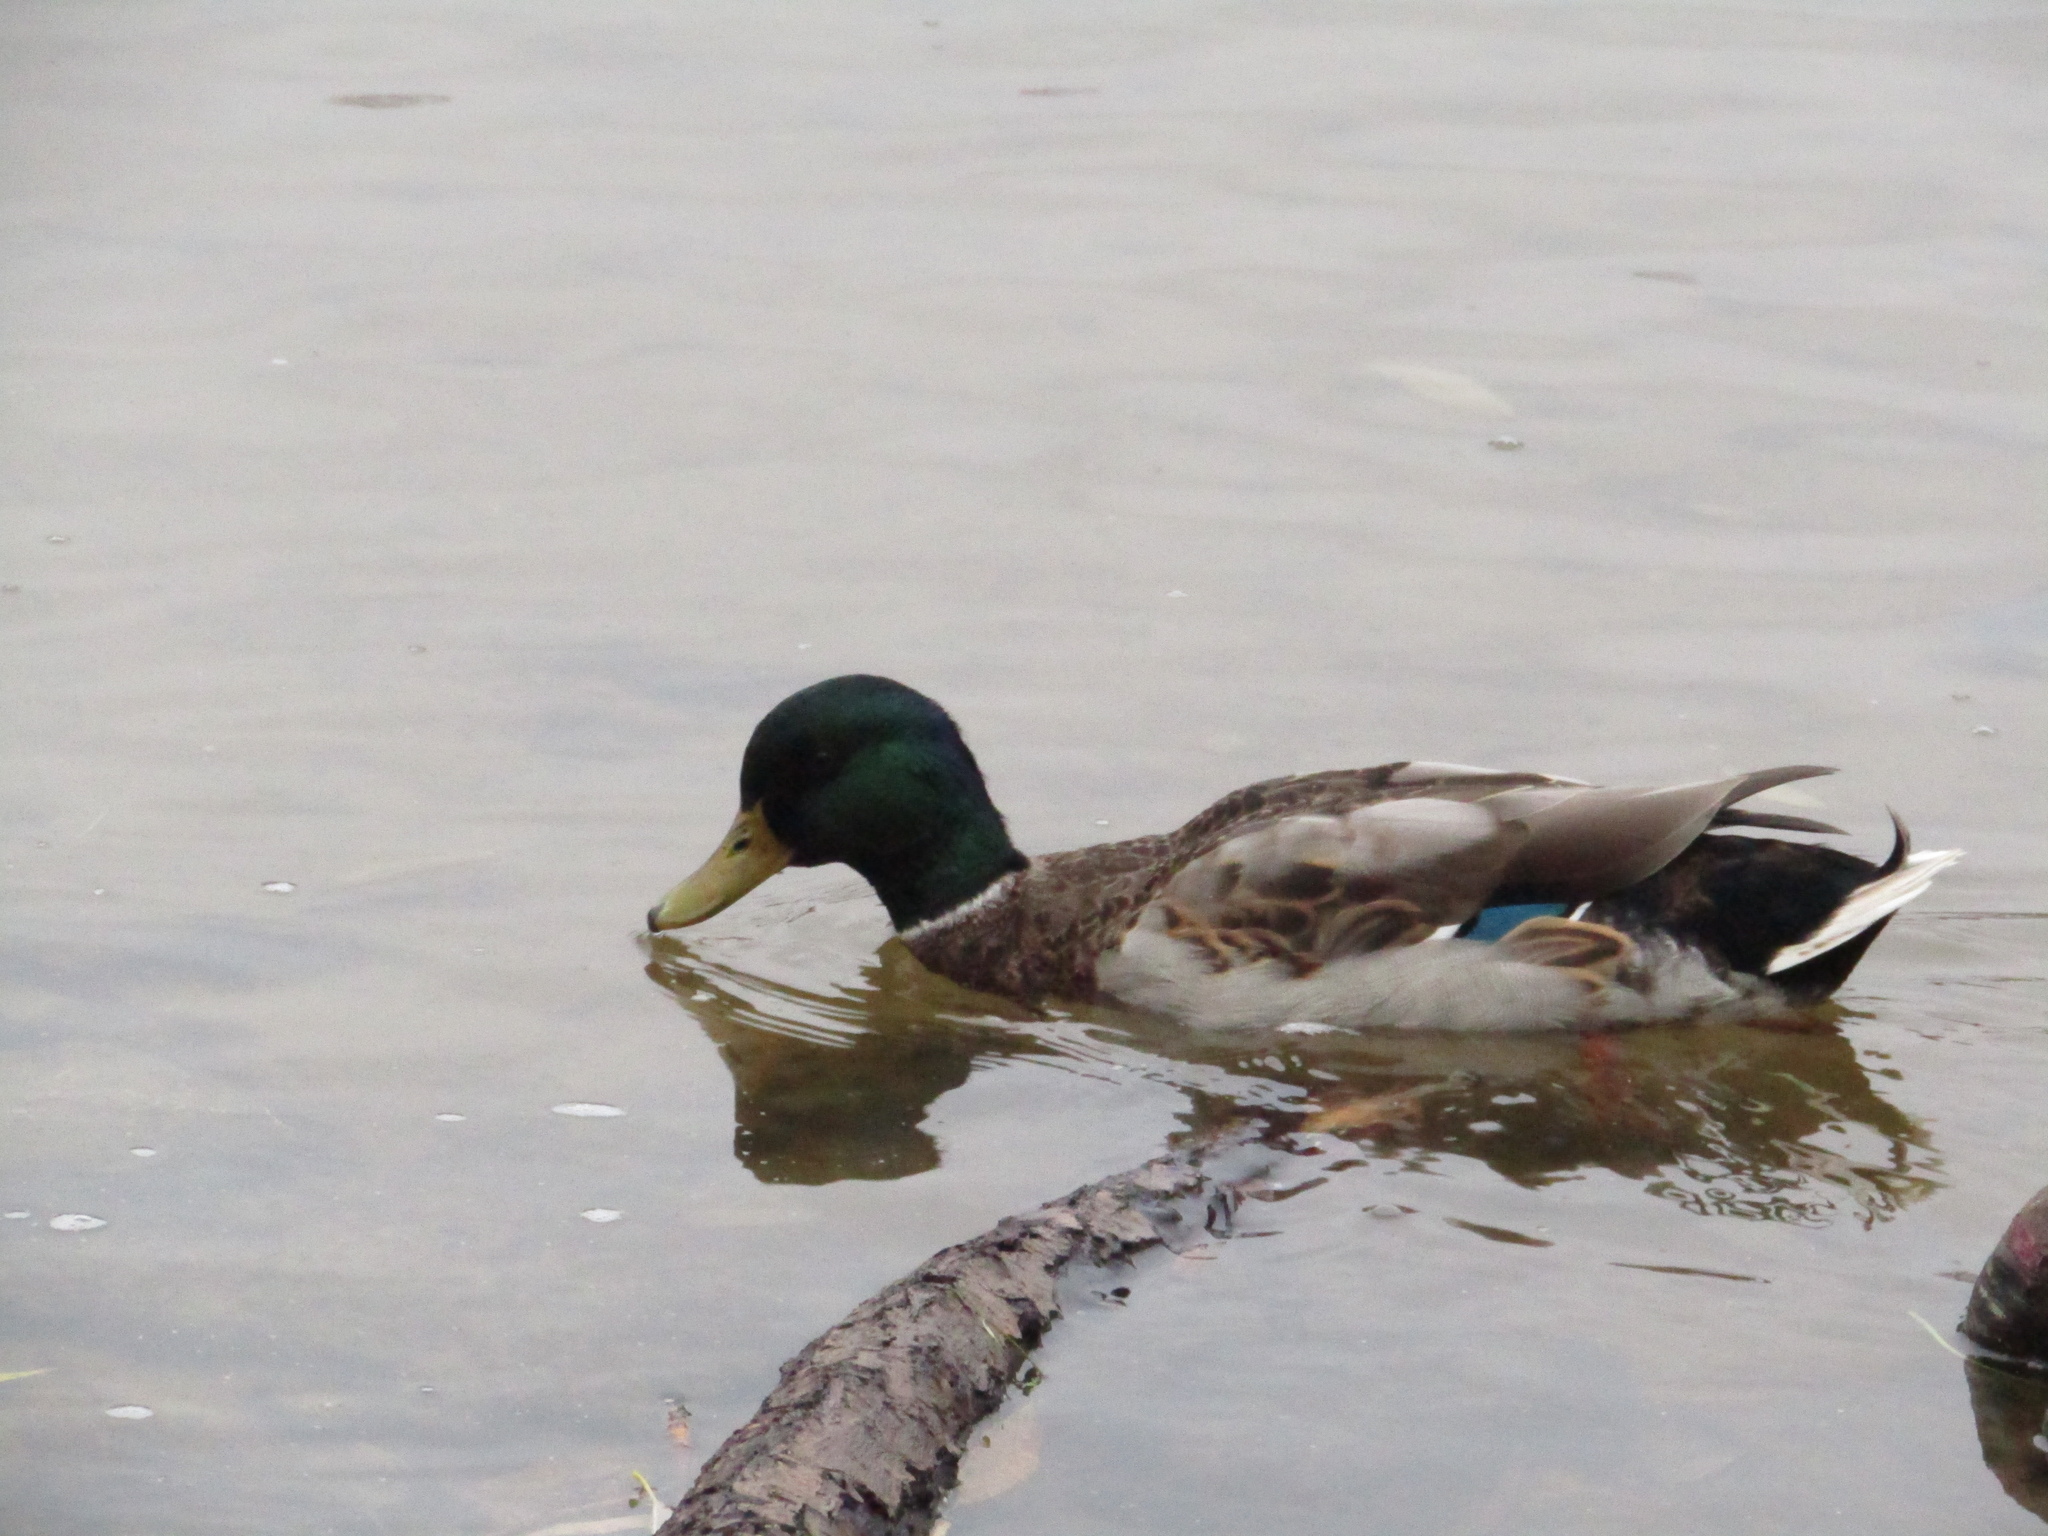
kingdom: Animalia
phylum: Chordata
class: Aves
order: Anseriformes
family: Anatidae
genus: Anas
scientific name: Anas platyrhynchos
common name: Mallard
